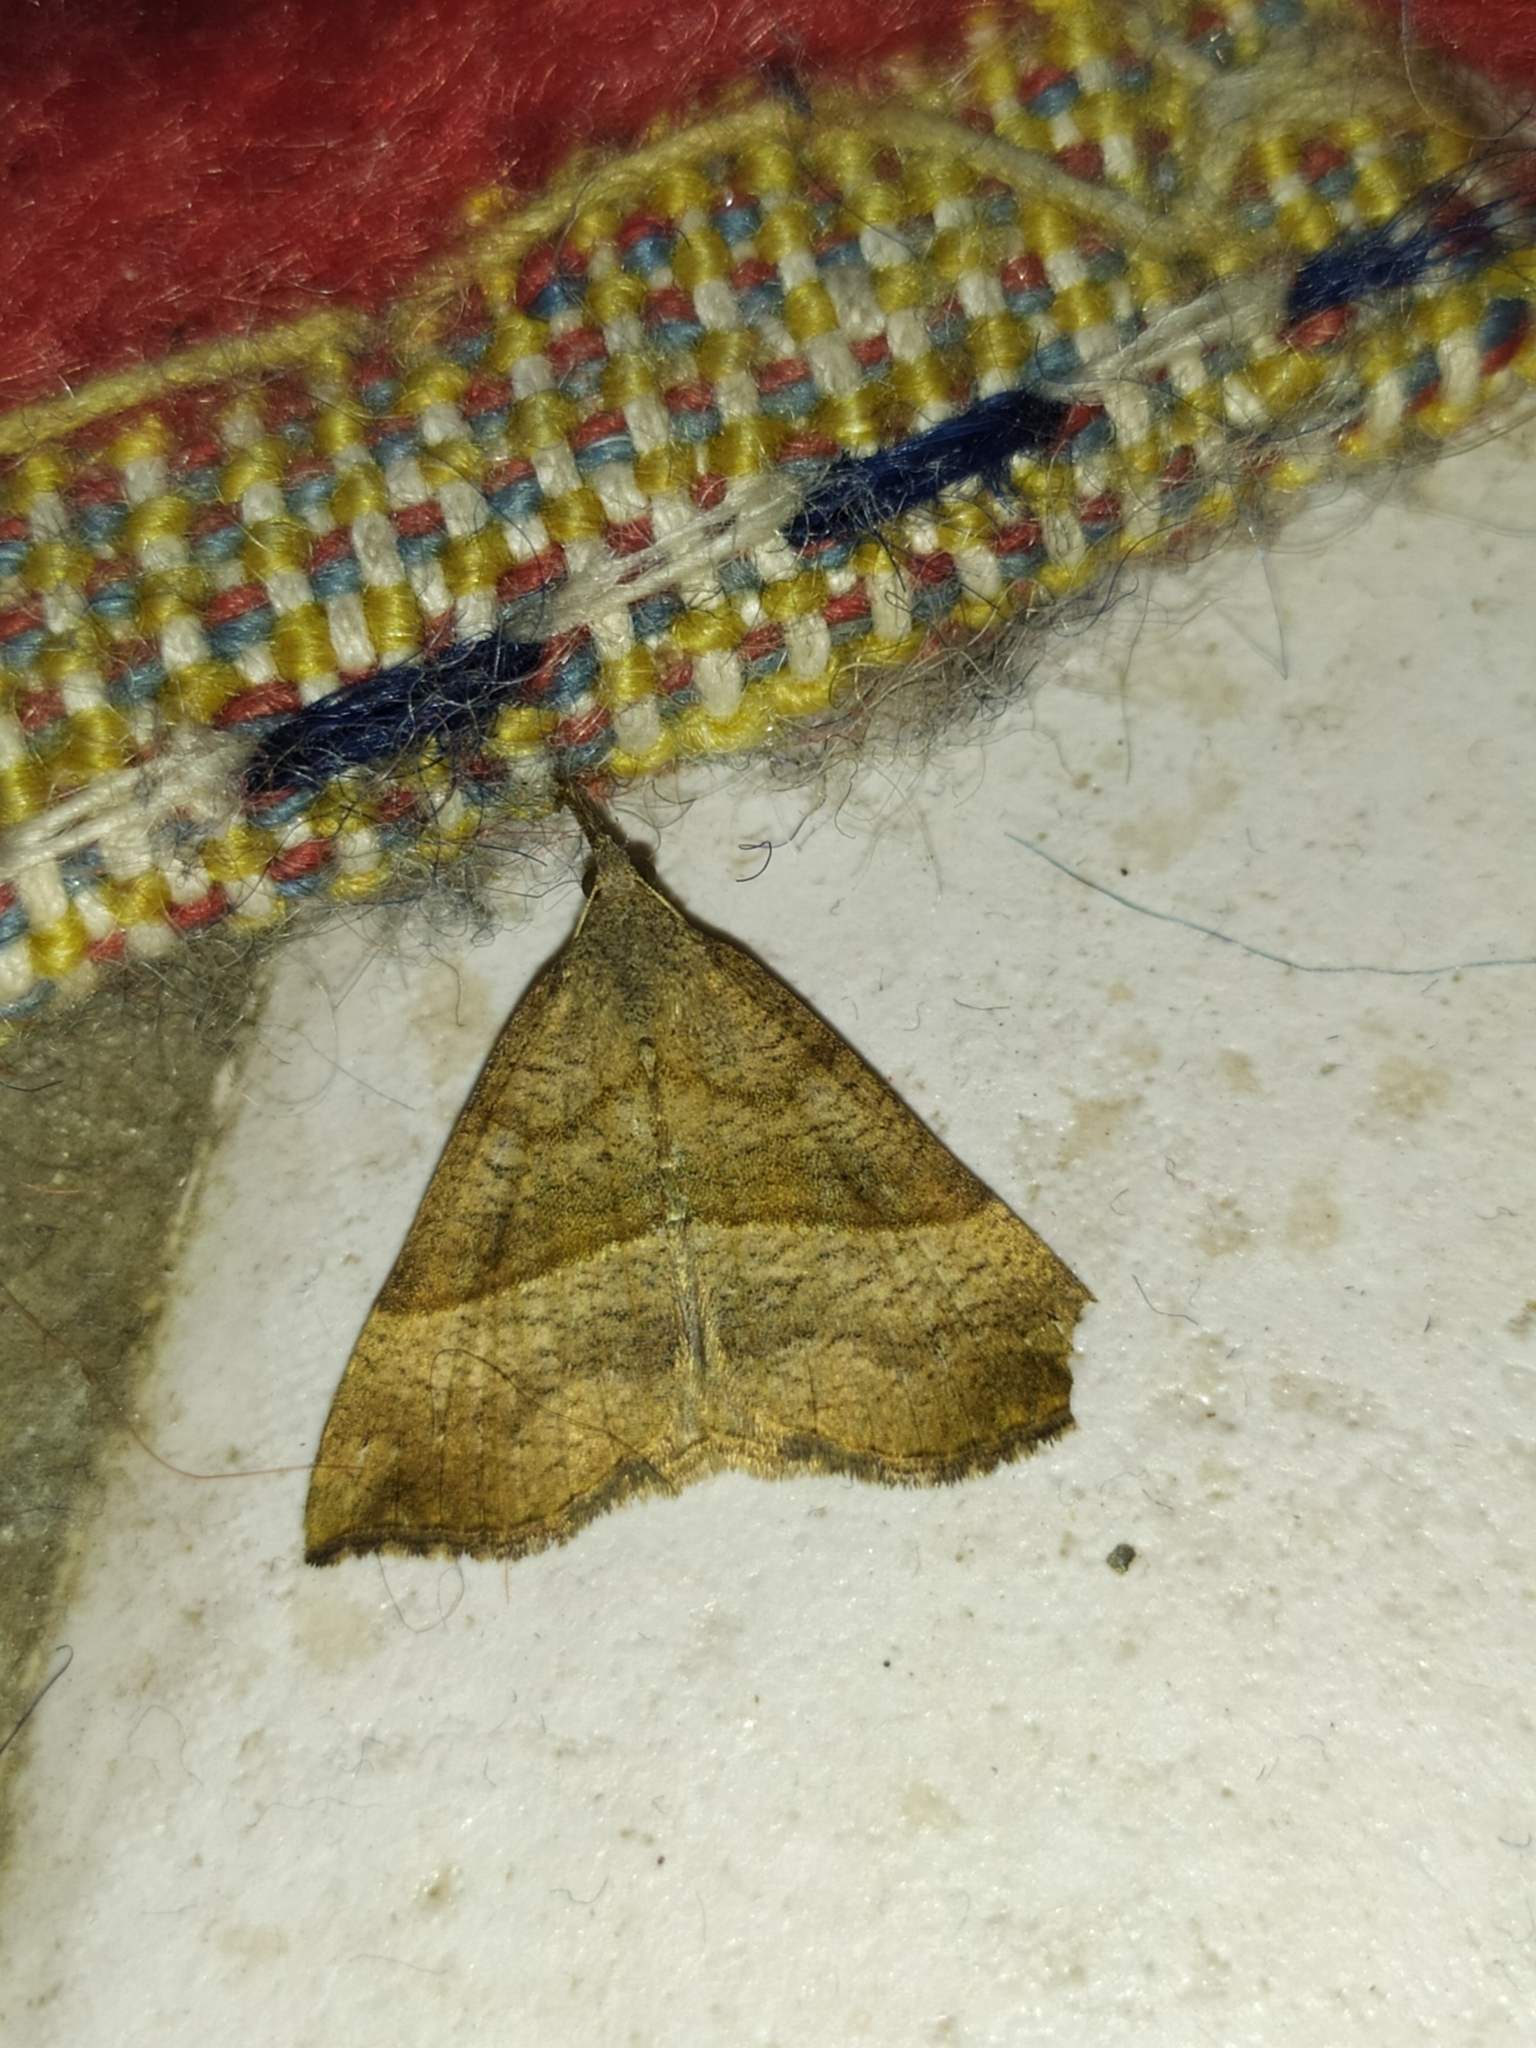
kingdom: Animalia
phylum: Arthropoda
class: Insecta
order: Lepidoptera
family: Erebidae
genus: Hypena
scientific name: Hypena proboscidalis
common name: Snout
